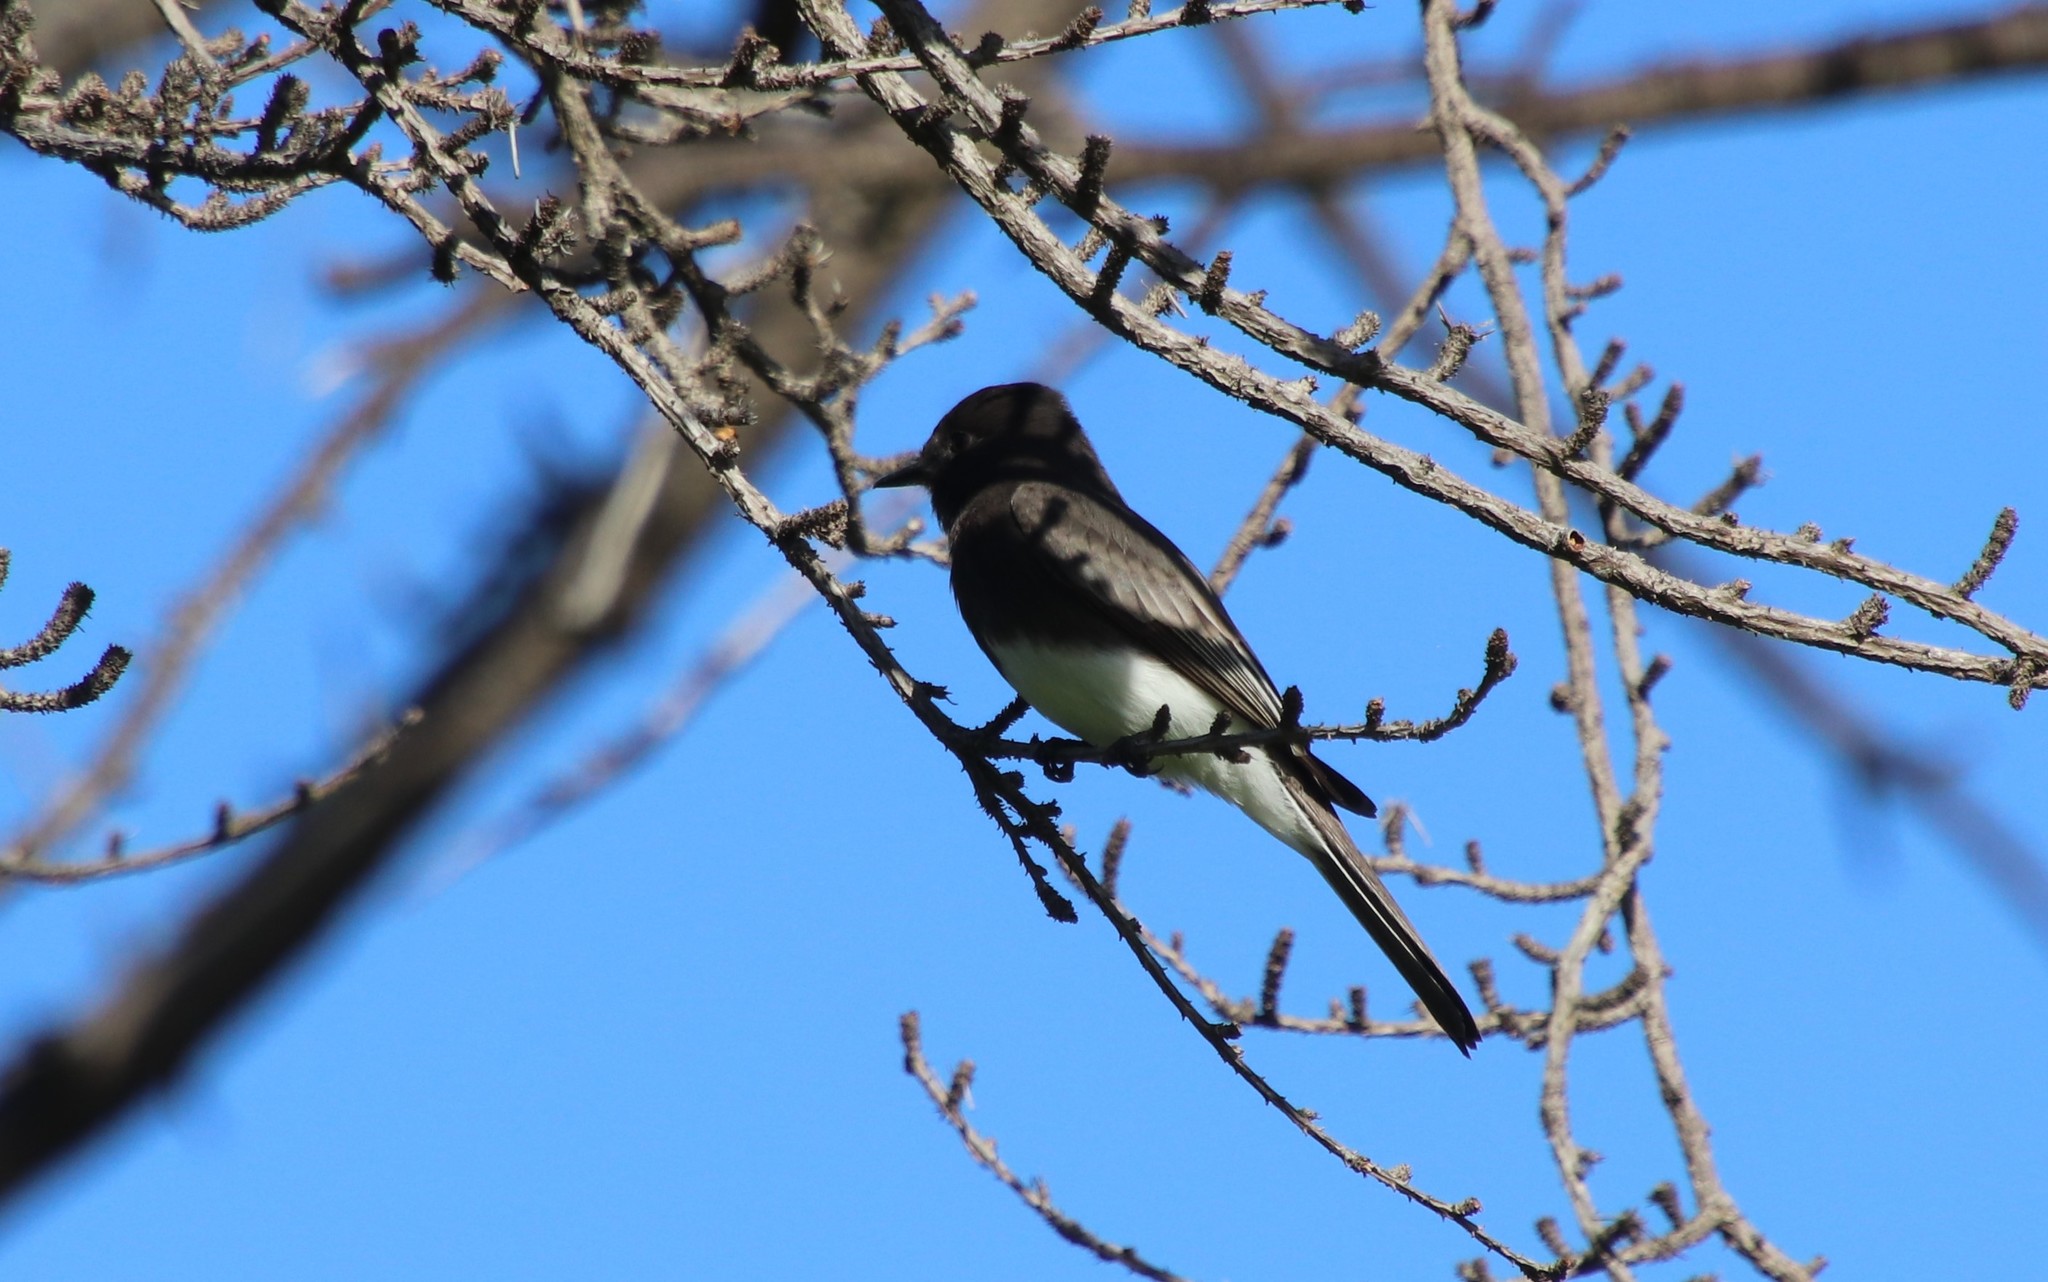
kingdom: Animalia
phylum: Chordata
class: Aves
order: Passeriformes
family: Tyrannidae
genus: Sayornis
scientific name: Sayornis nigricans
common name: Black phoebe
